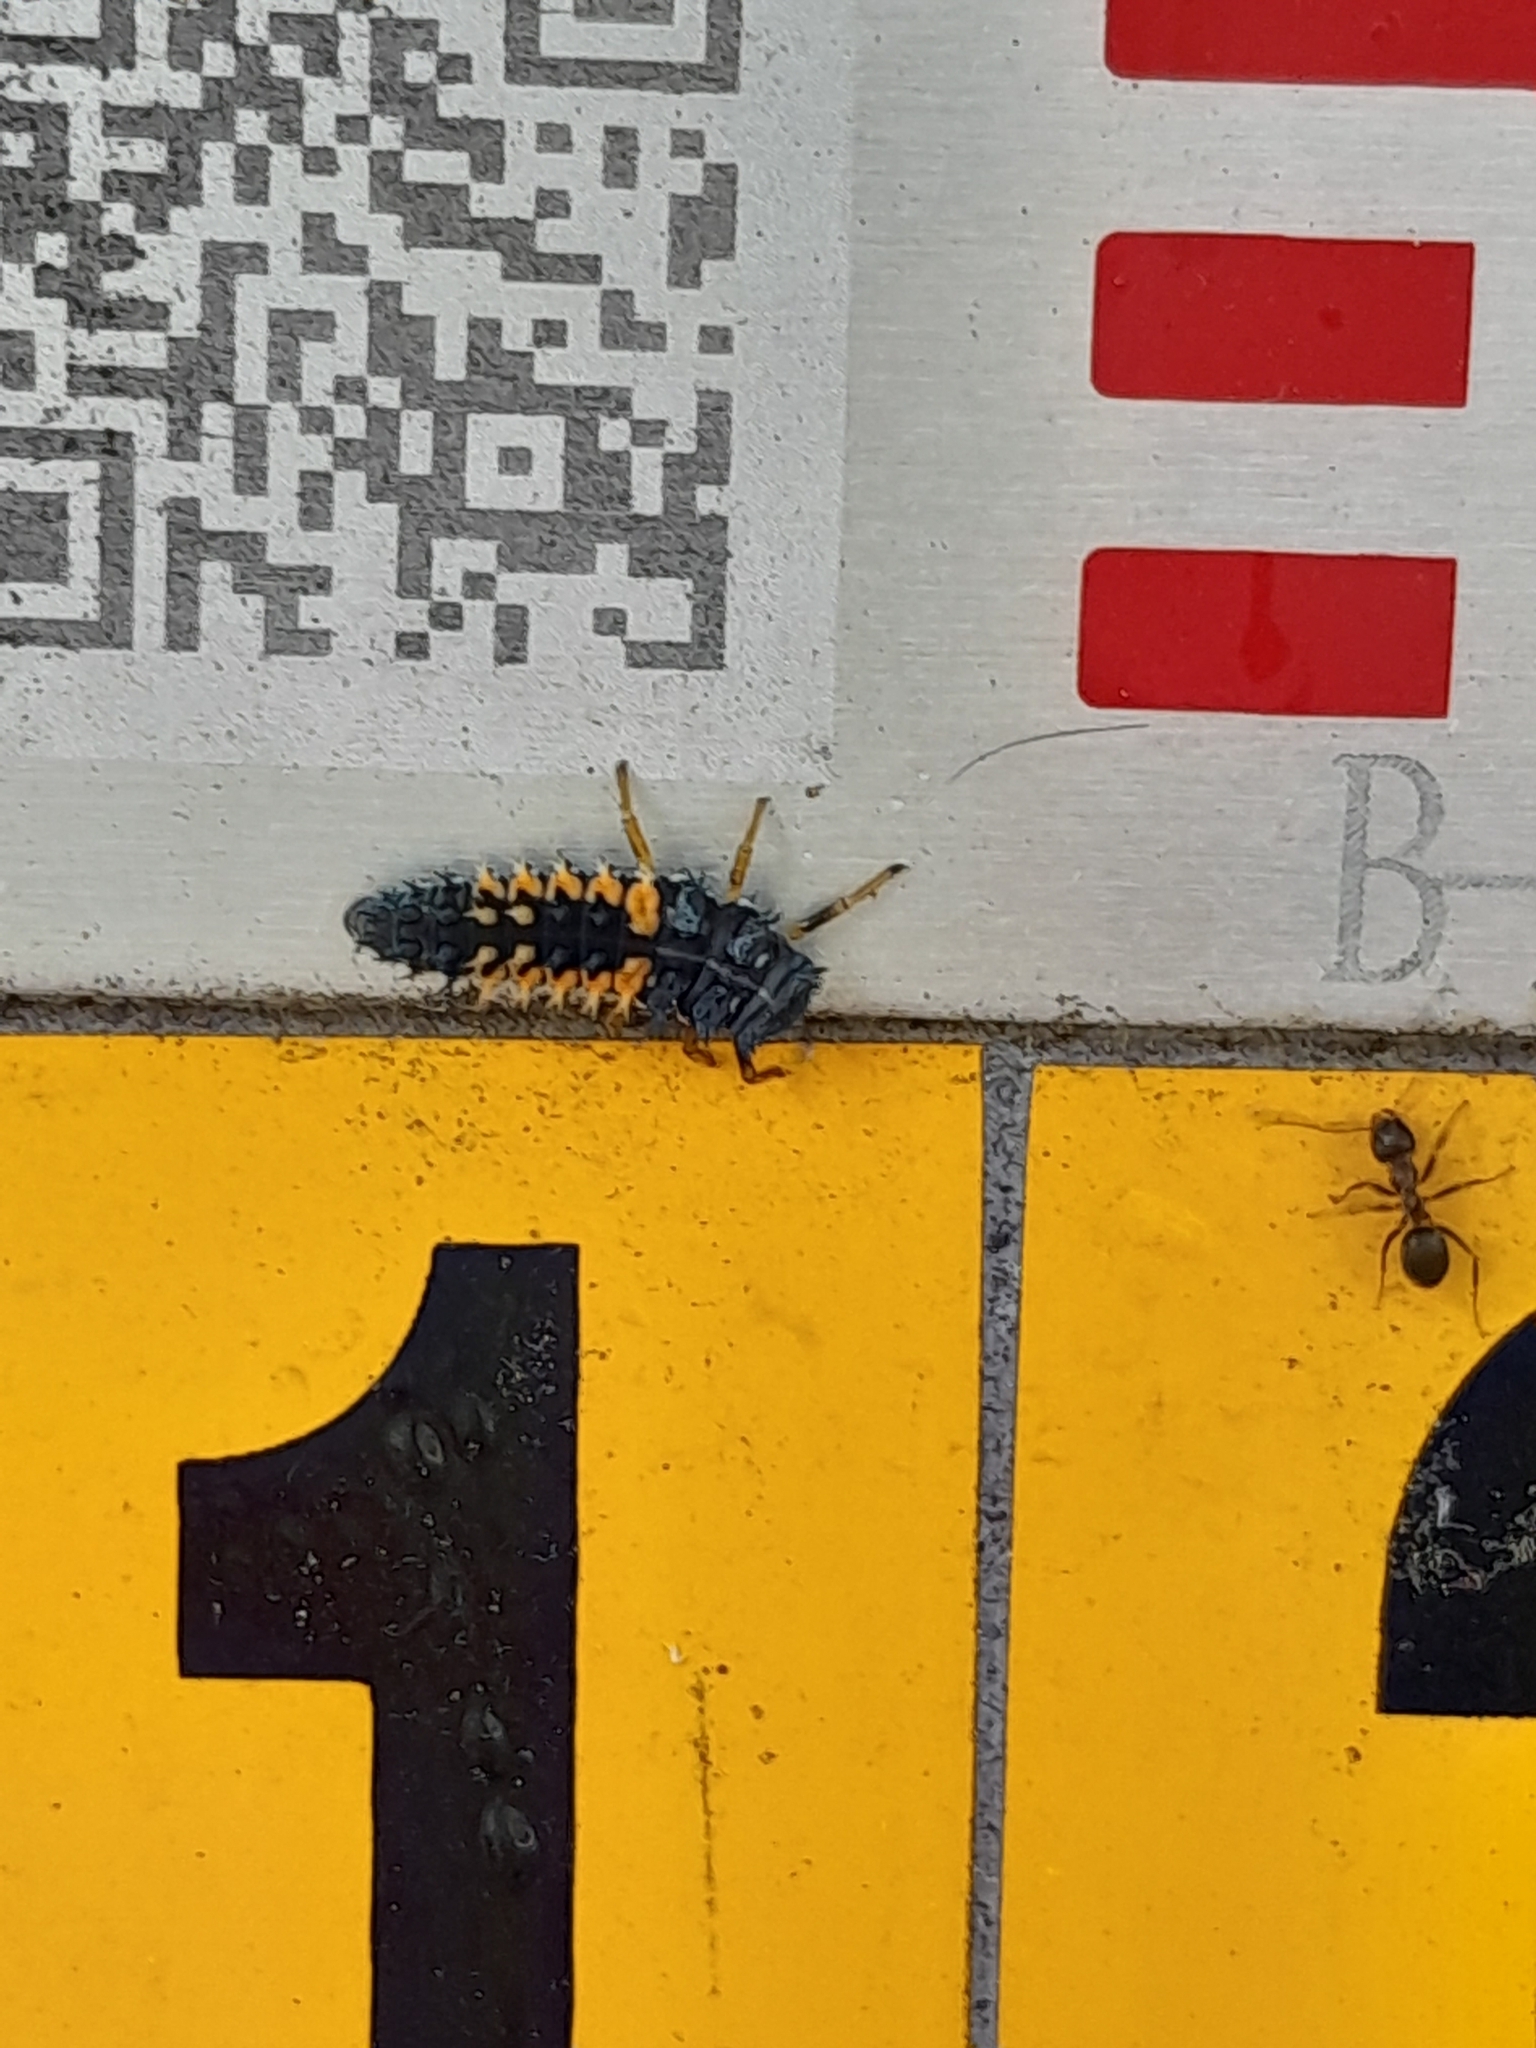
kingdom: Animalia
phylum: Arthropoda
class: Insecta
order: Coleoptera
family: Coccinellidae
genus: Harmonia
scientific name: Harmonia axyridis
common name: Harlequin ladybird
